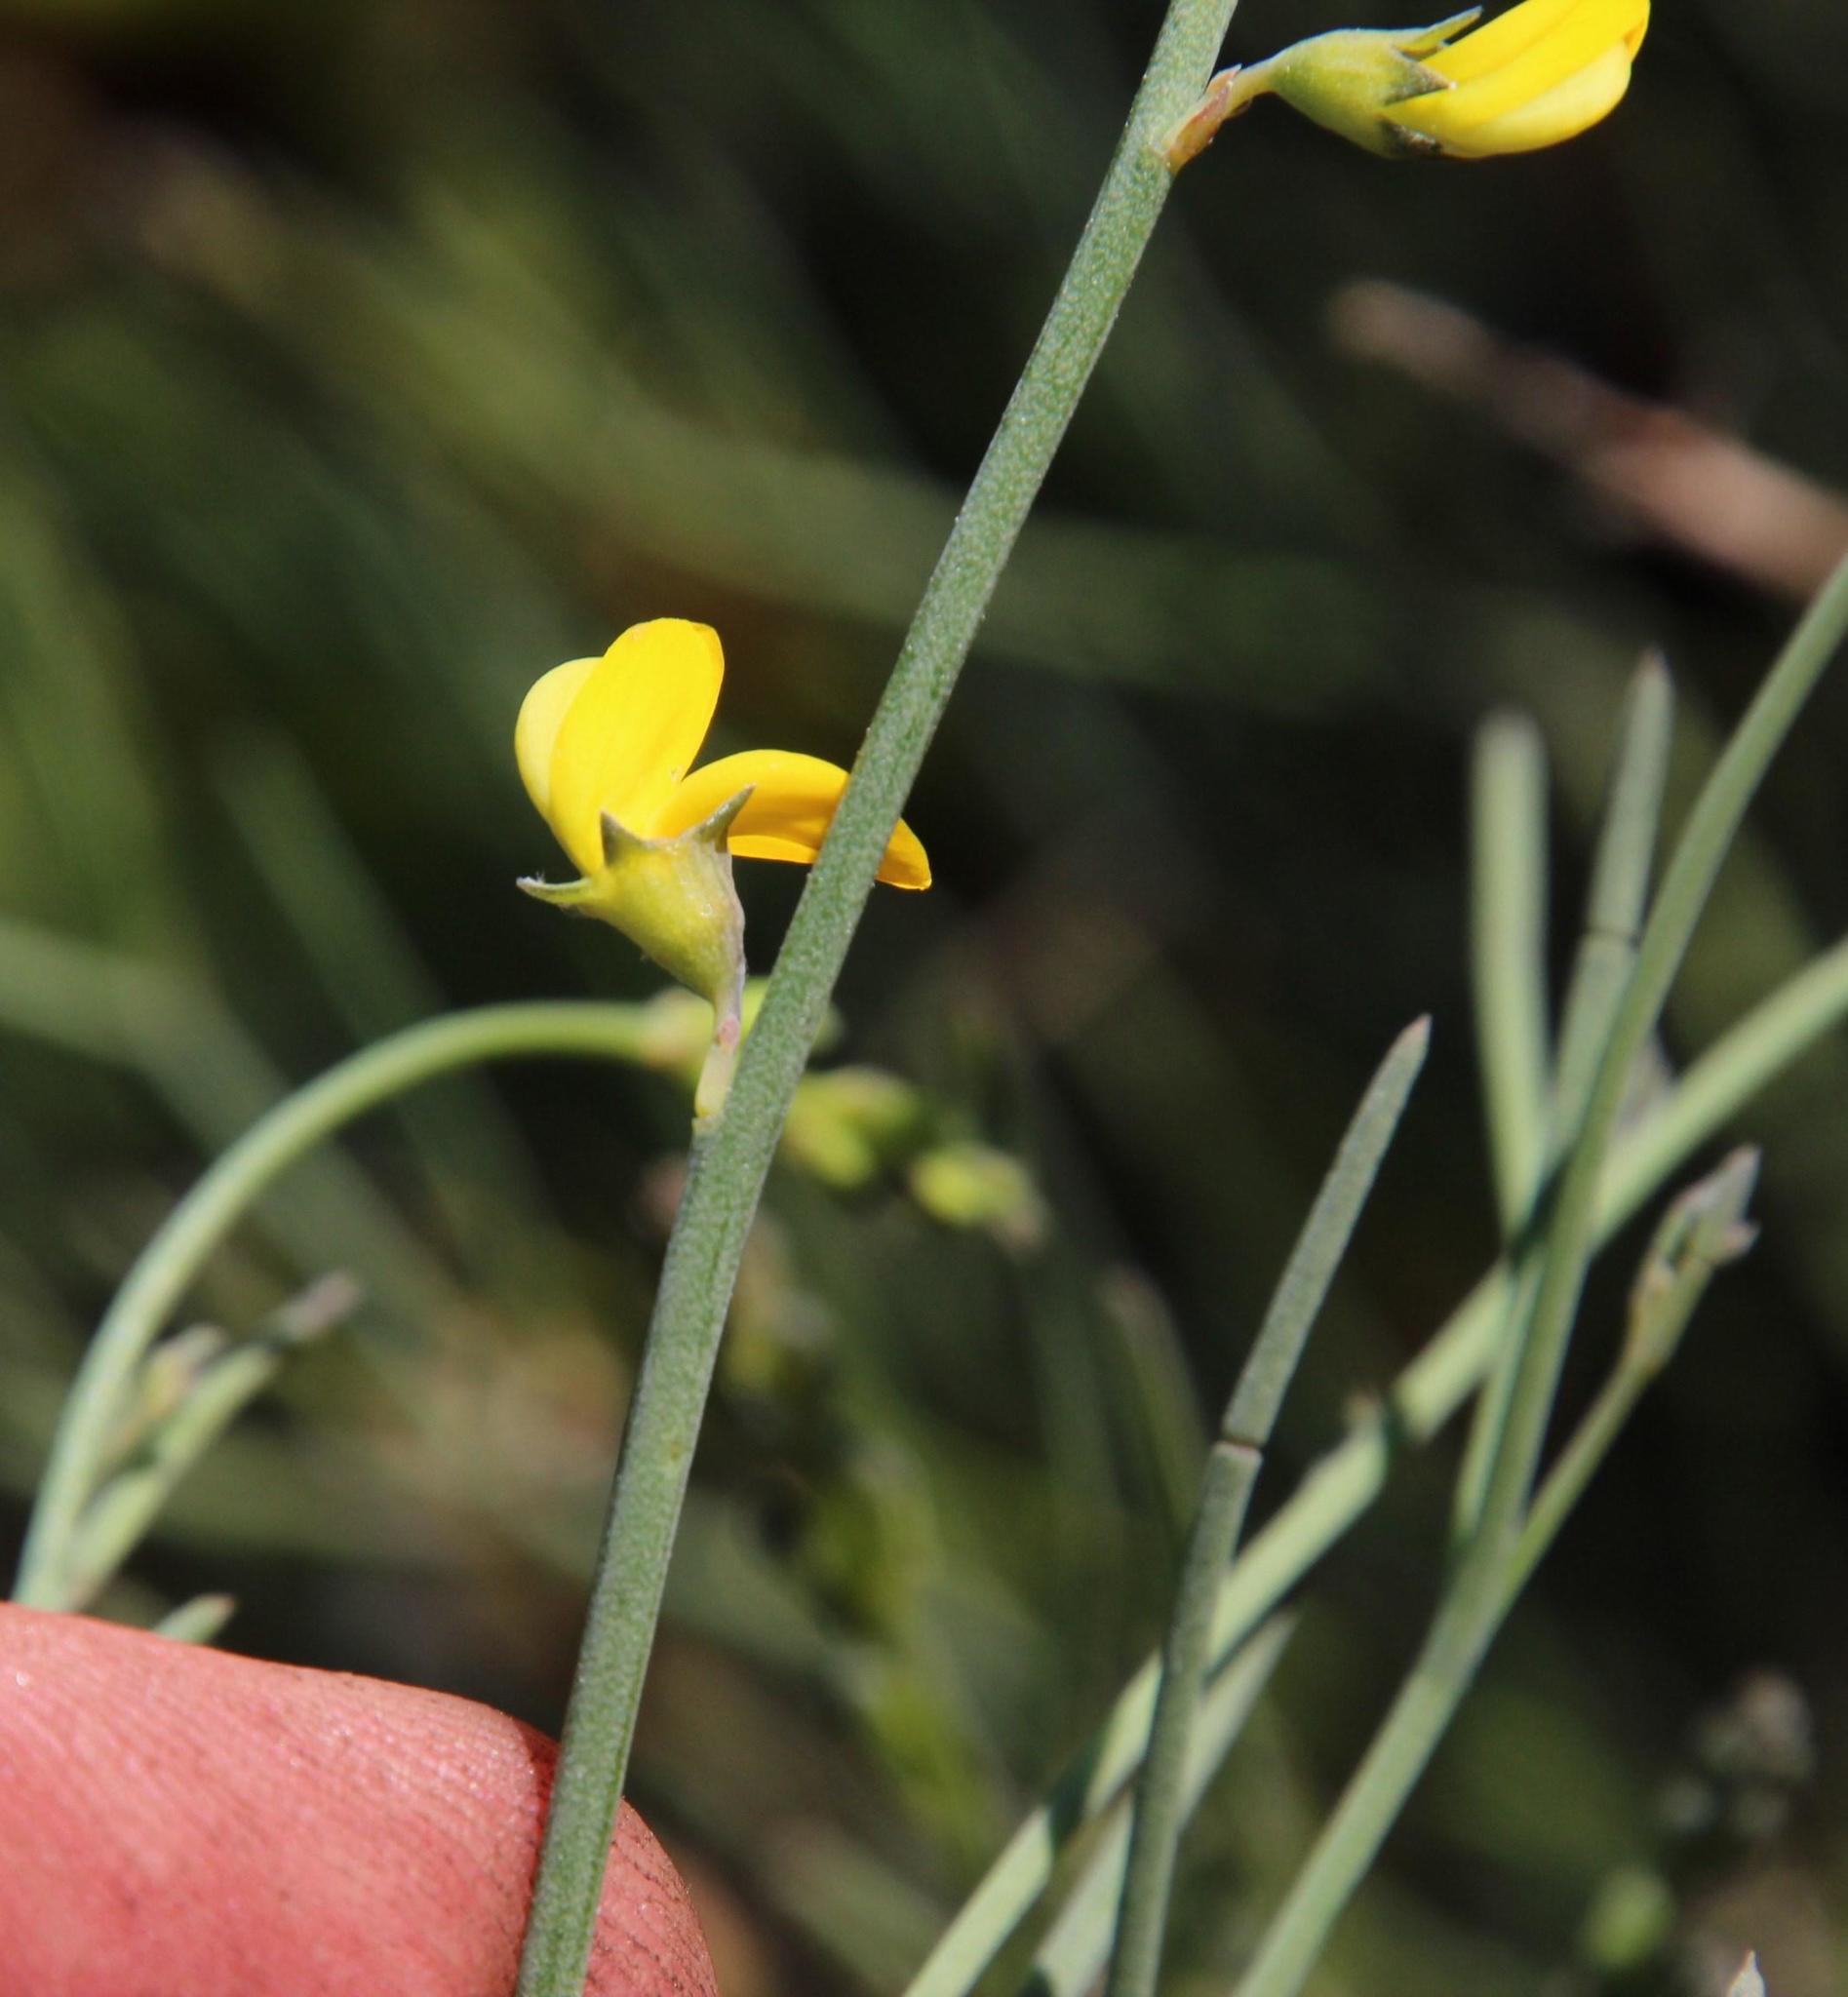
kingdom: Plantae
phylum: Tracheophyta
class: Magnoliopsida
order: Fabales
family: Fabaceae
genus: Lebeckia
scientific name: Lebeckia contaminata
